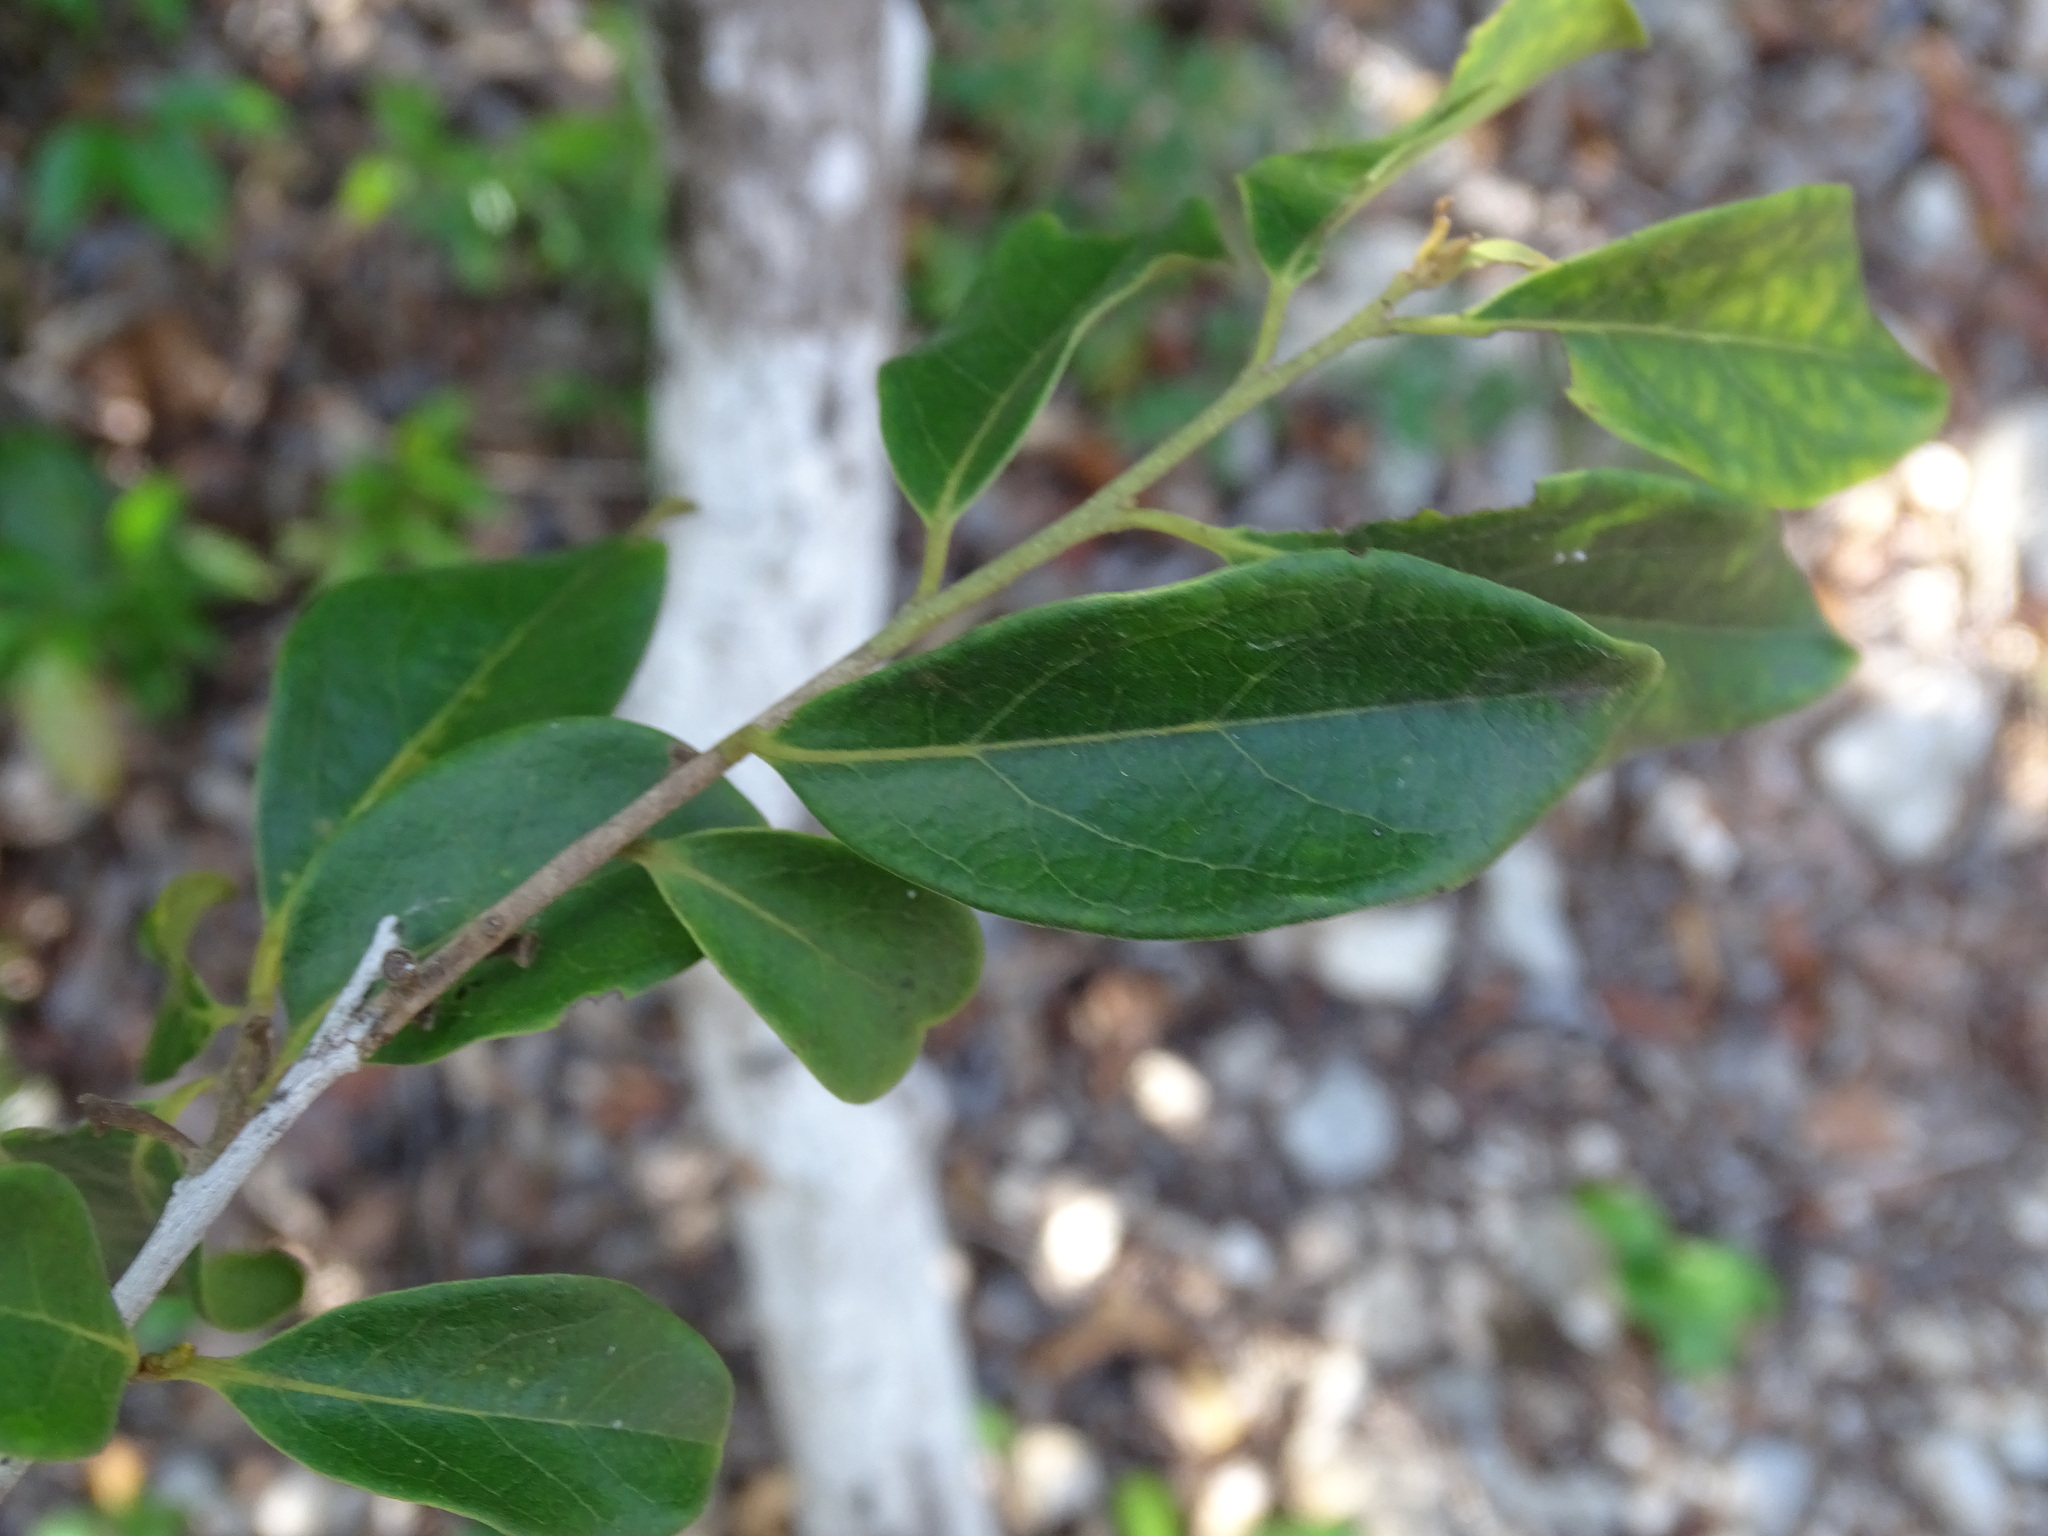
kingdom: Plantae
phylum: Tracheophyta
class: Magnoliopsida
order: Ericales
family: Ebenaceae
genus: Diospyros
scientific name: Diospyros salicifolia
